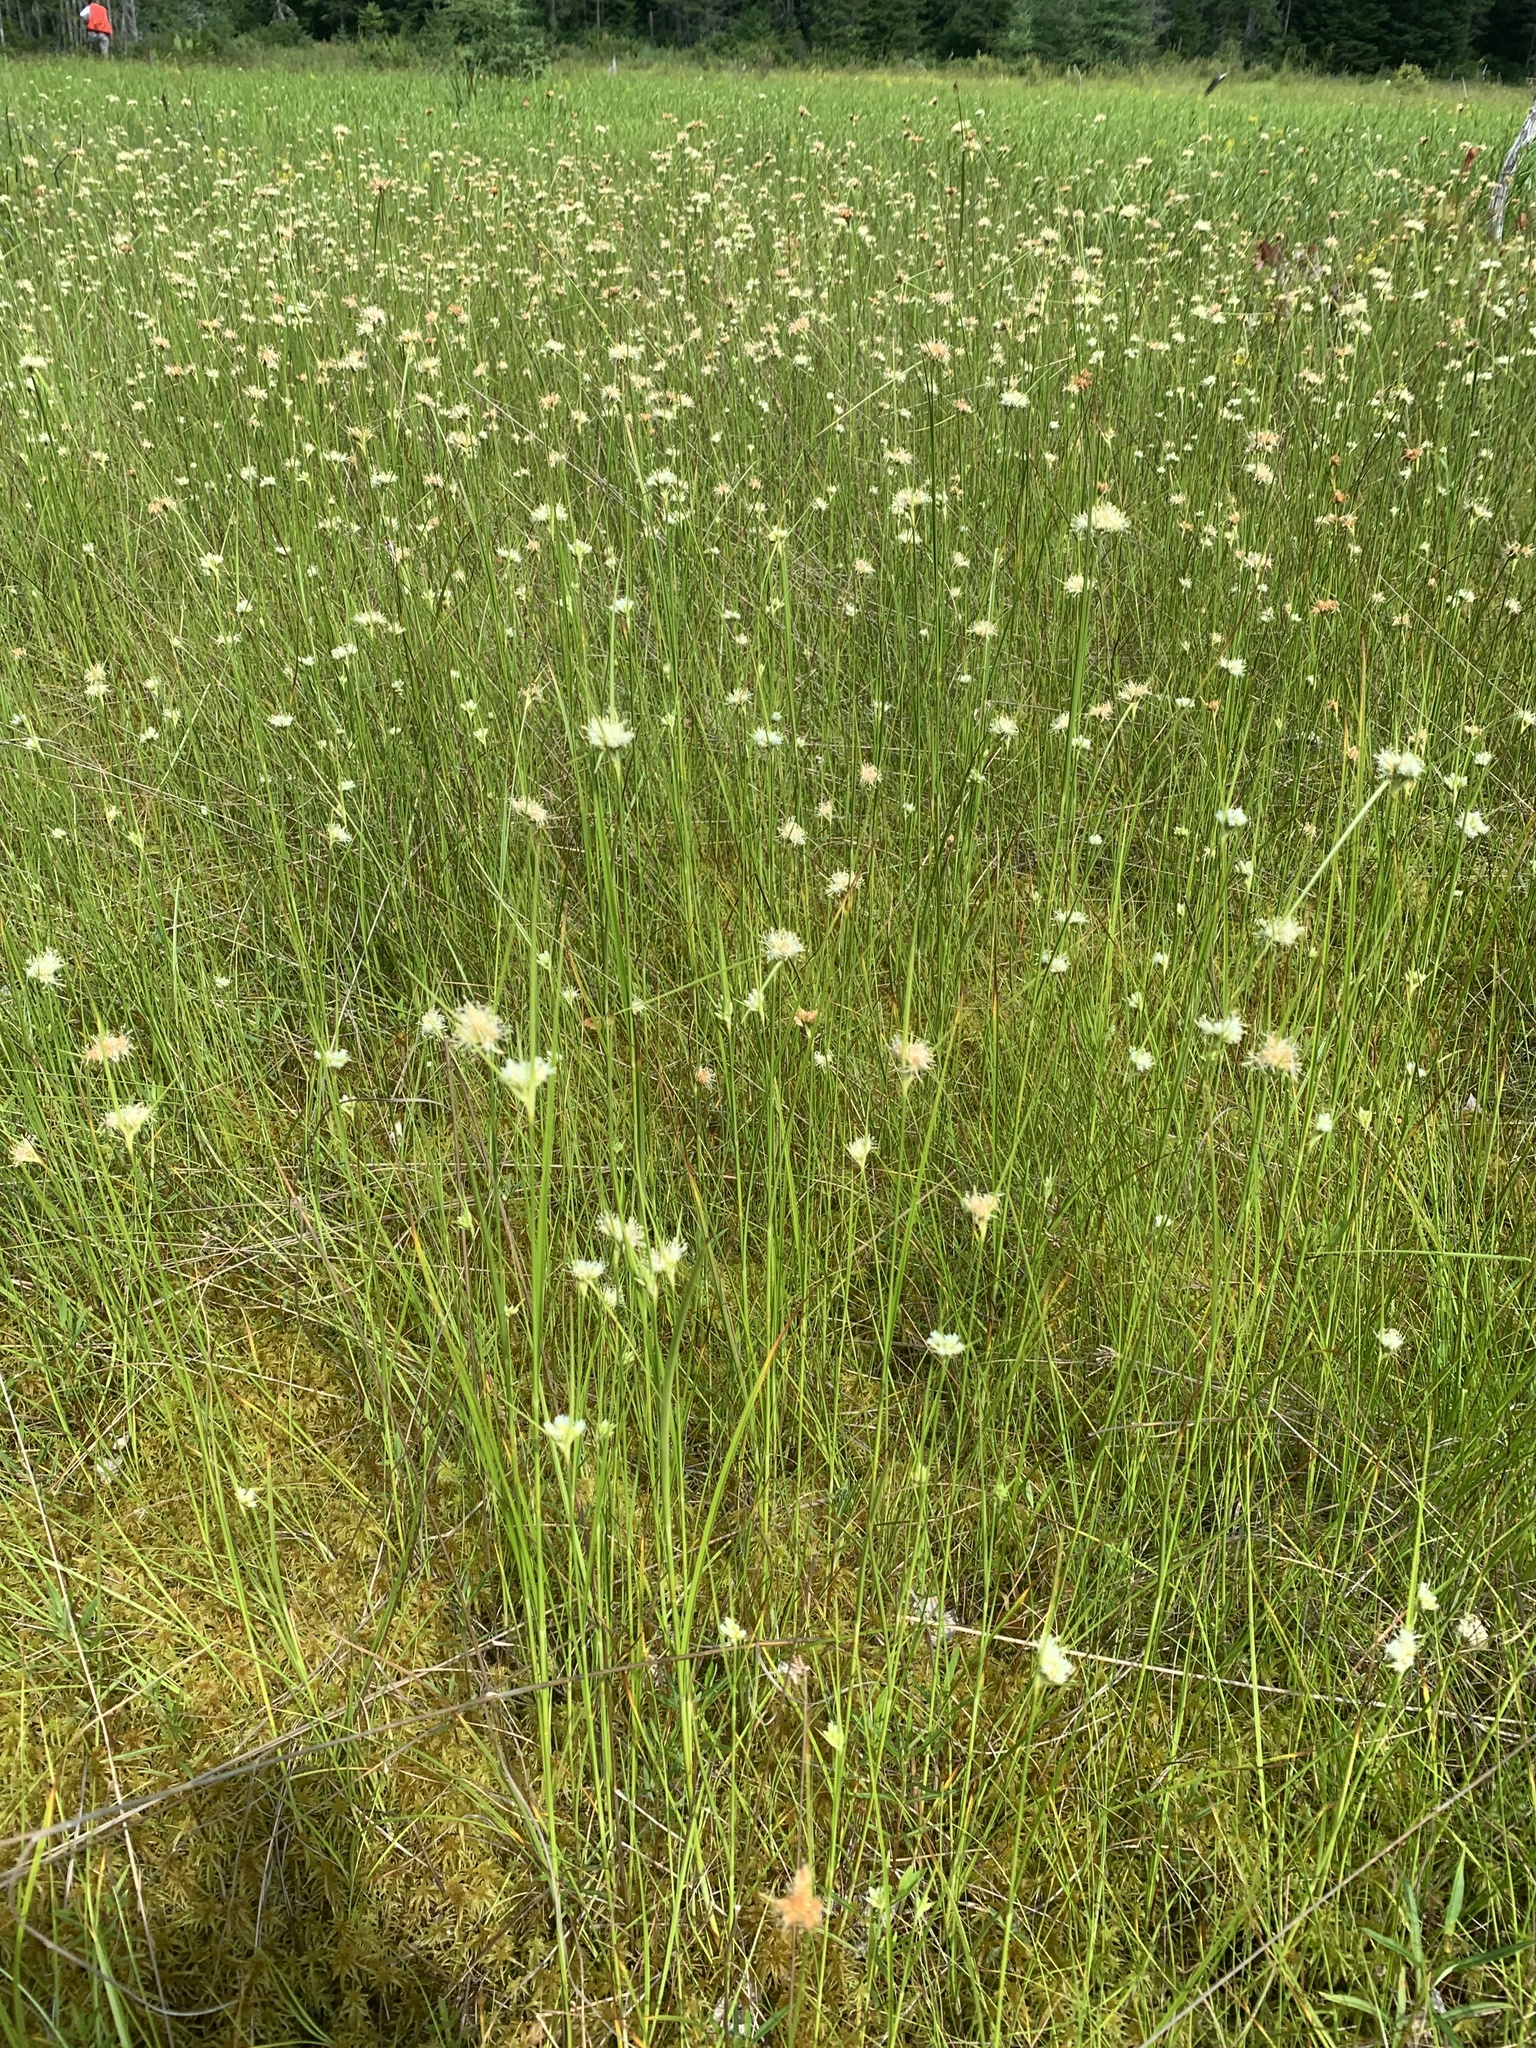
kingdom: Plantae
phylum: Tracheophyta
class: Liliopsida
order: Poales
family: Cyperaceae
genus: Eriophorum
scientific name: Eriophorum virginicum
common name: Tawny cottongrass
